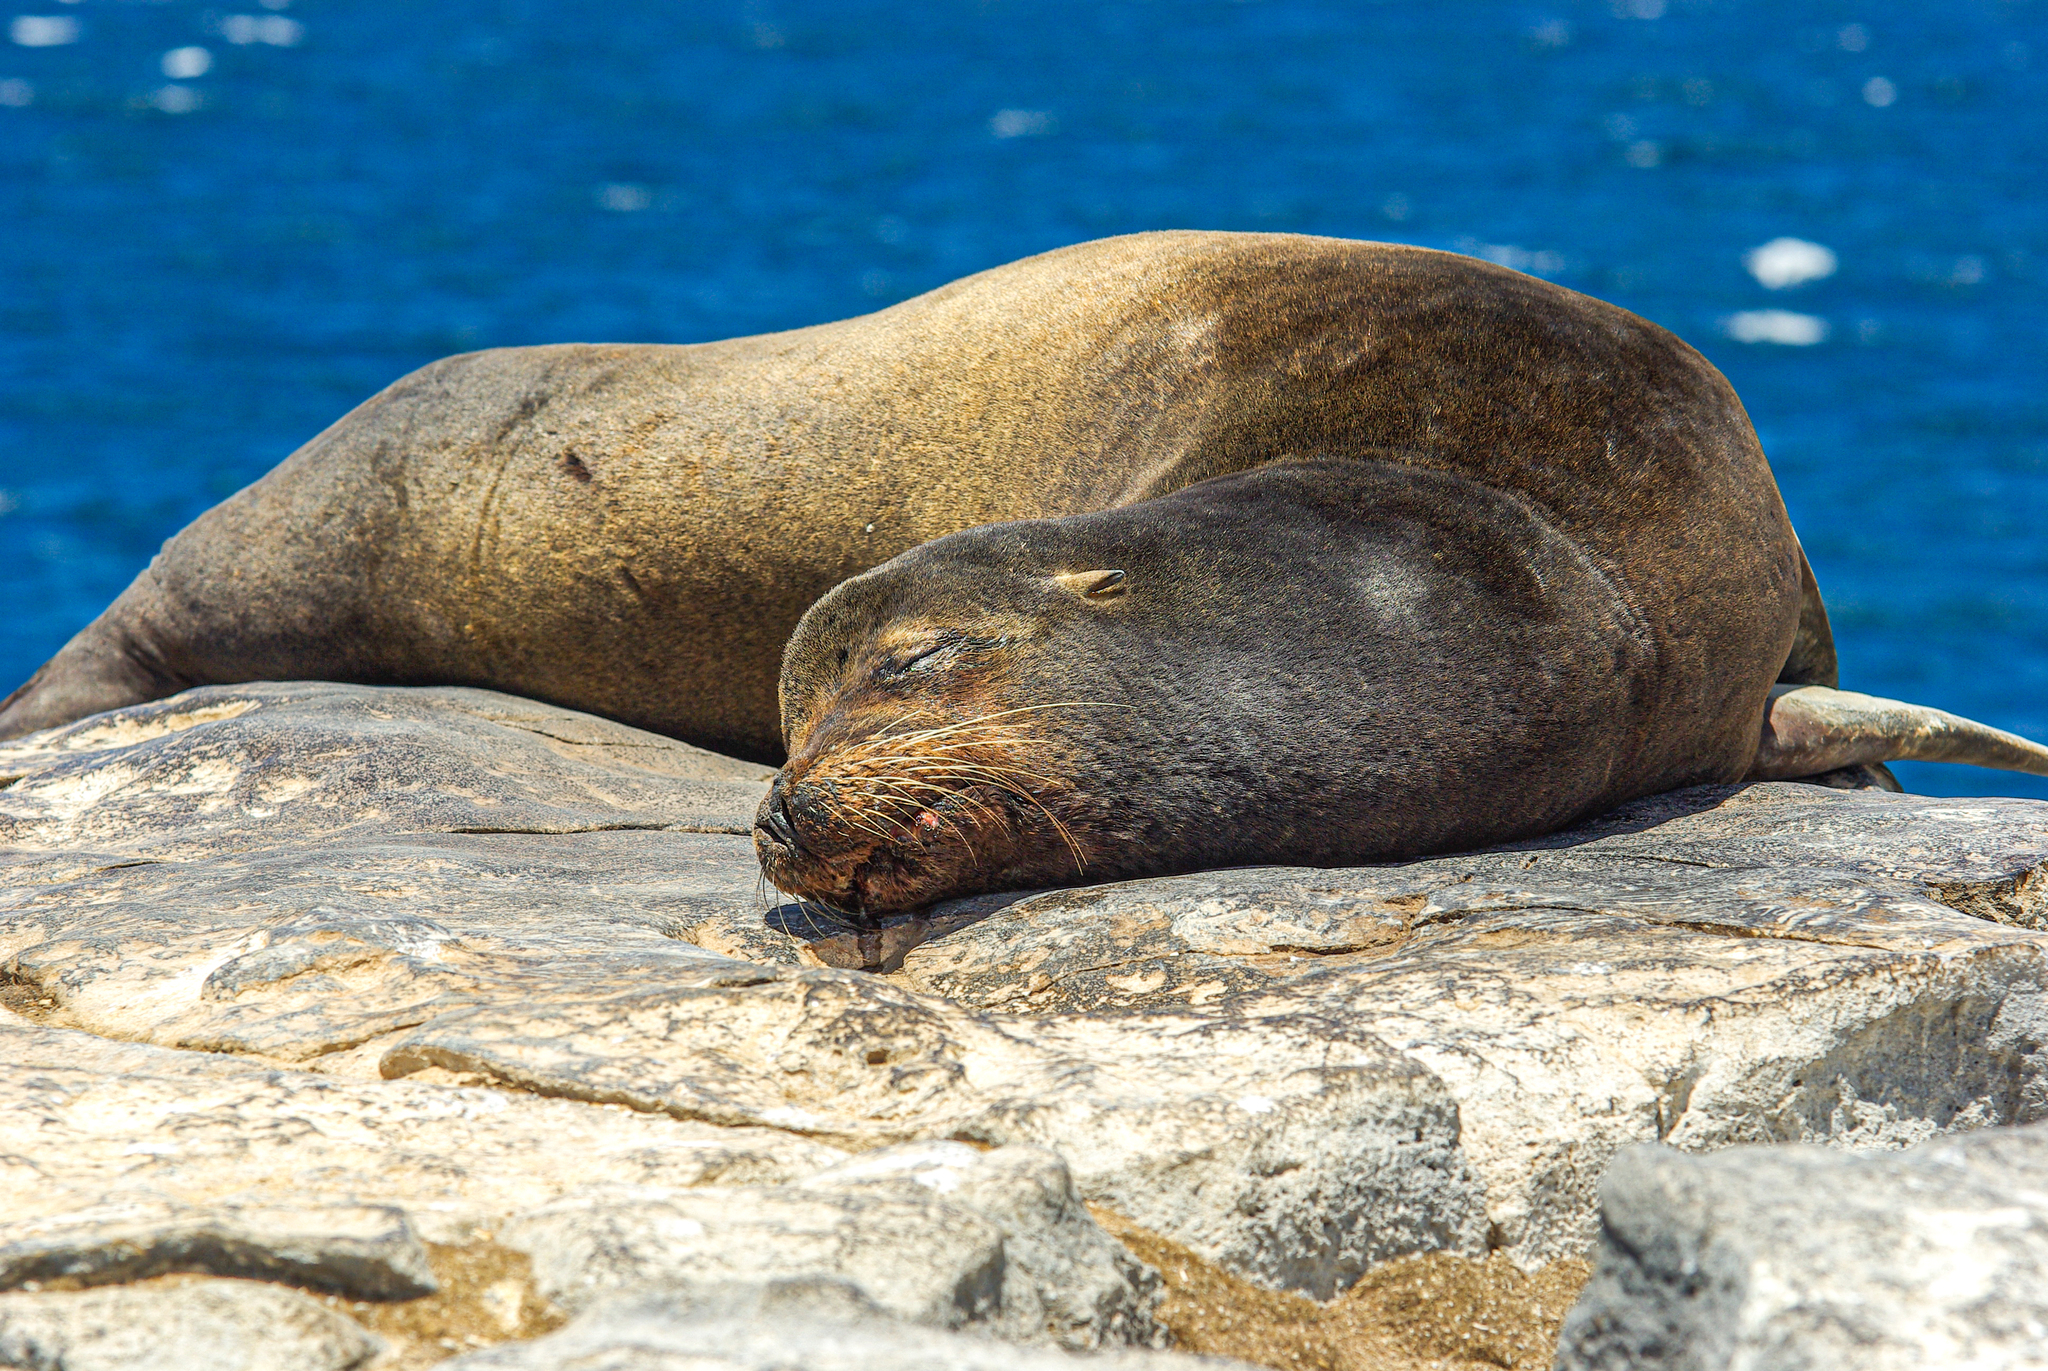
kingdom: Animalia
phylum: Chordata
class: Mammalia
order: Carnivora
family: Otariidae
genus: Zalophus
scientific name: Zalophus wollebaeki
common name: Galapagos sea lion
